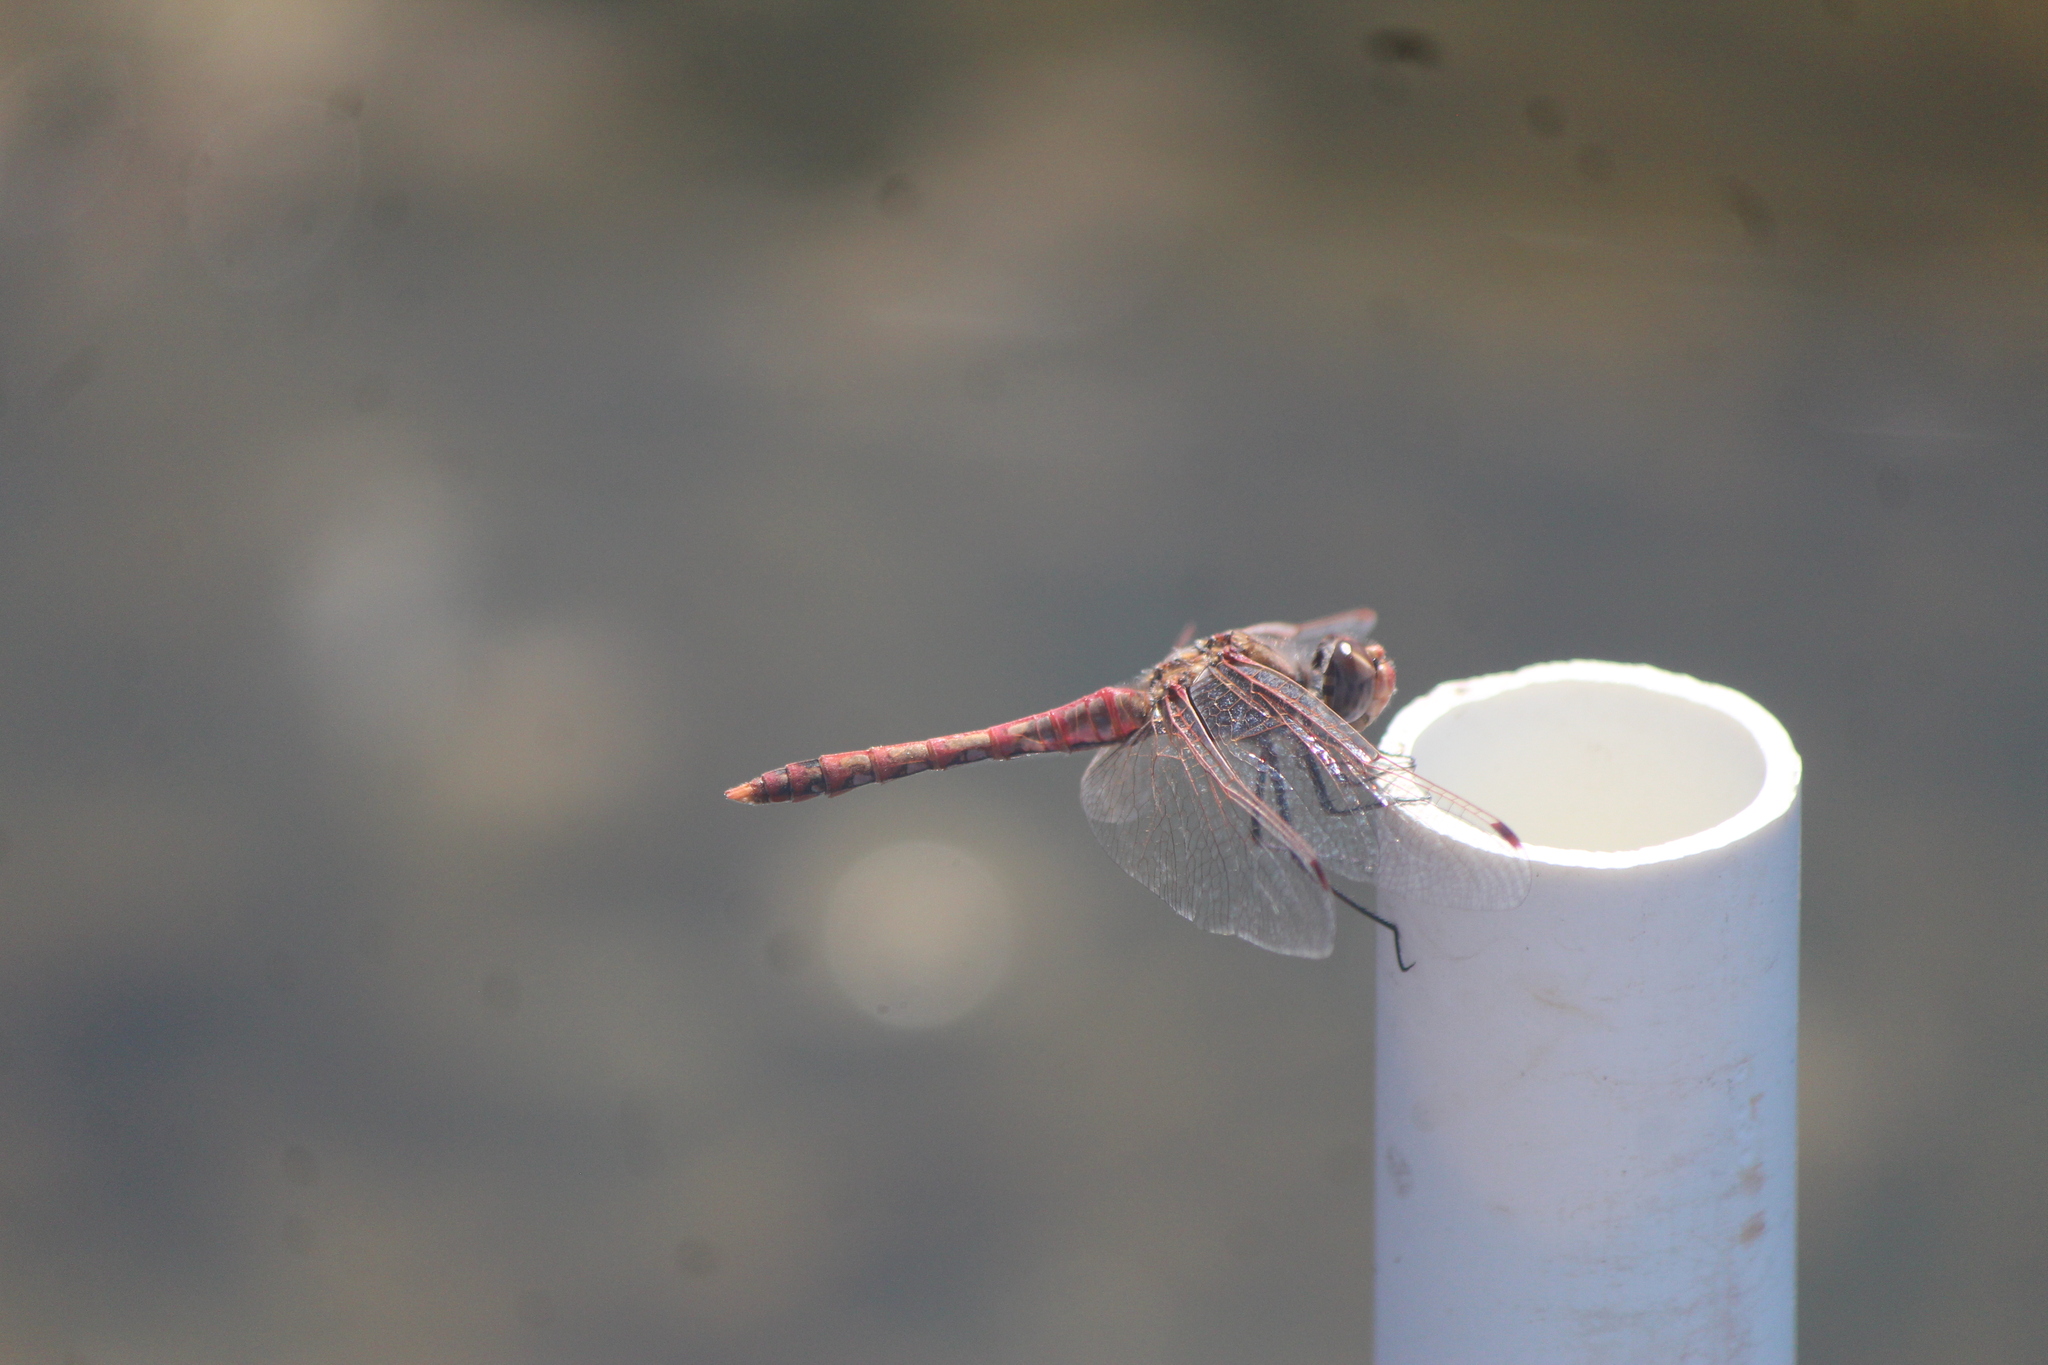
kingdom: Animalia
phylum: Arthropoda
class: Insecta
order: Odonata
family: Libellulidae
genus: Sympetrum
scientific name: Sympetrum corruptum
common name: Variegated meadowhawk
